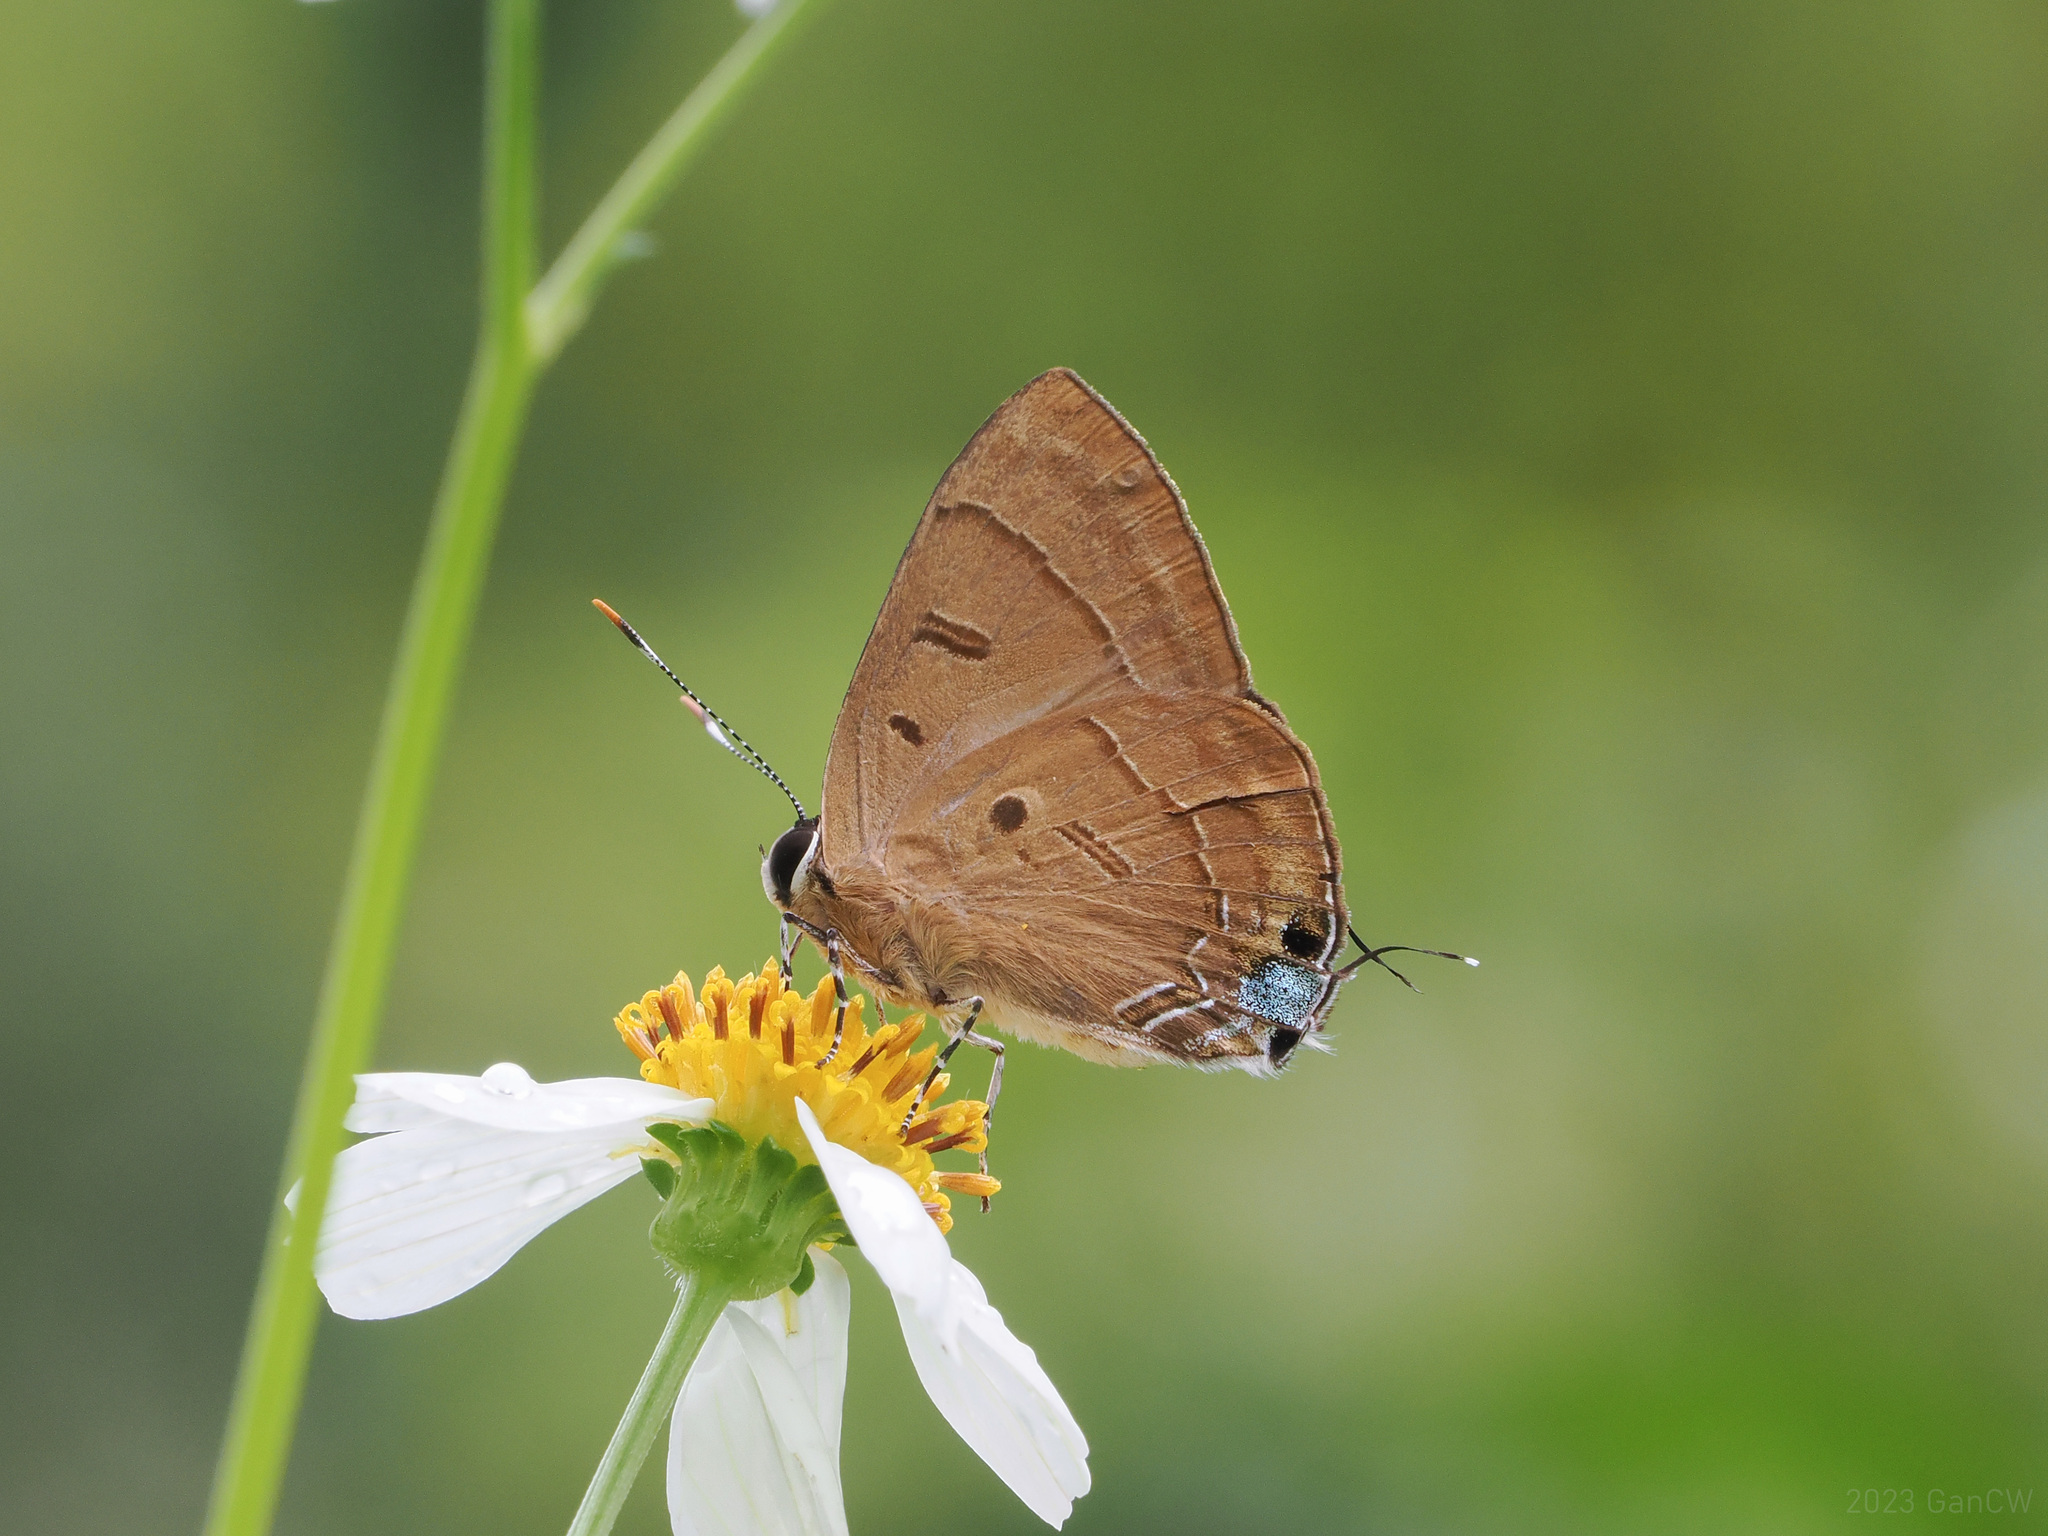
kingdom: Animalia
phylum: Arthropoda
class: Insecta
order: Lepidoptera
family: Lycaenidae
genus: Rapala
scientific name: Rapala pheretima
